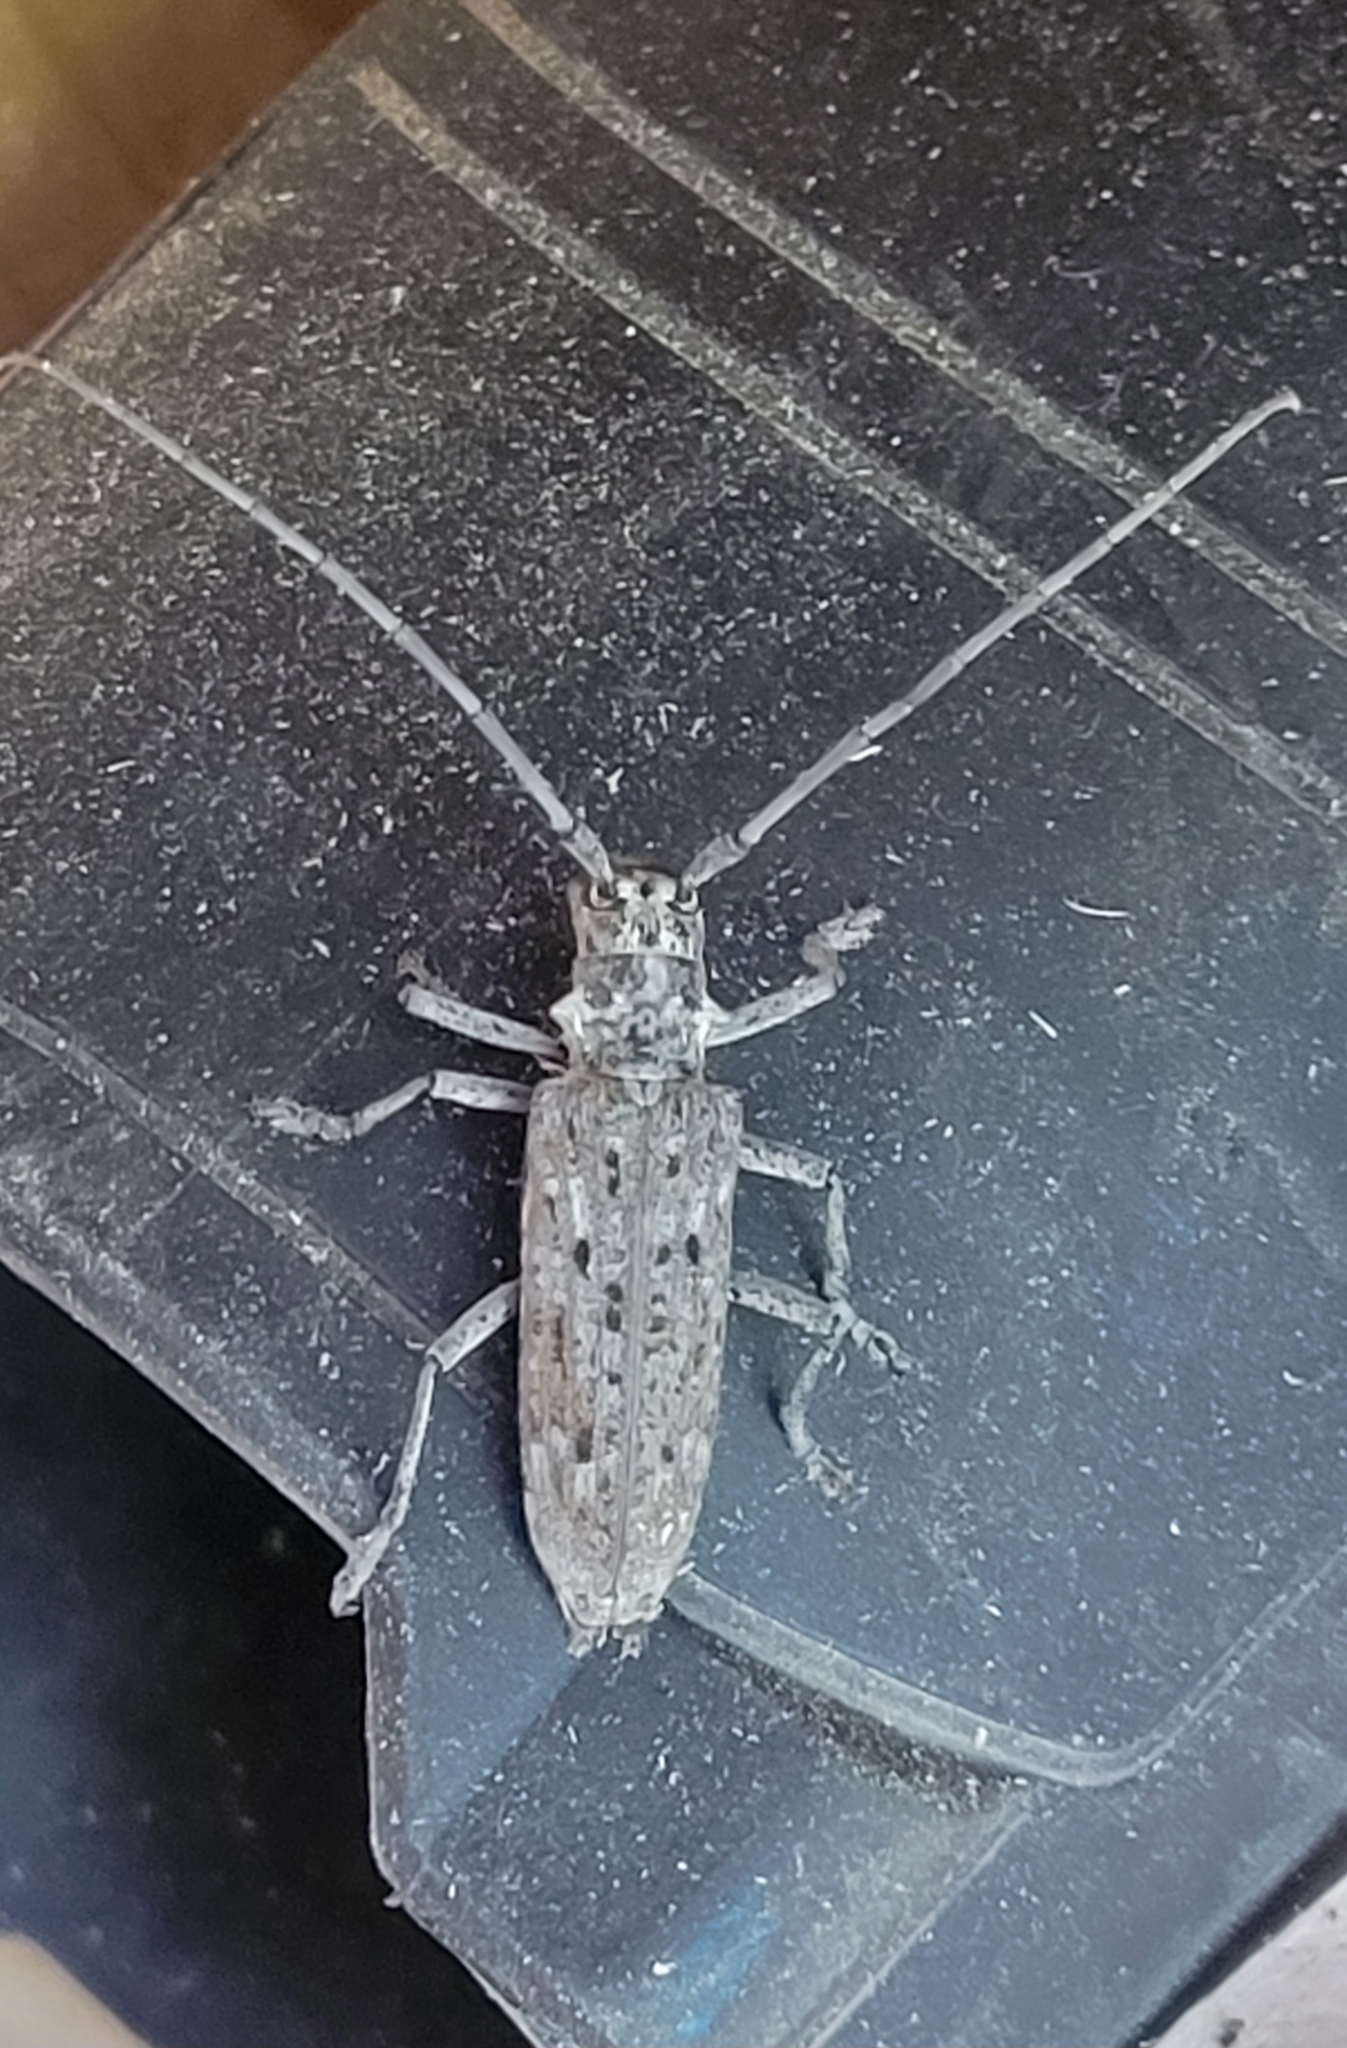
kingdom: Animalia
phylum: Arthropoda
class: Insecta
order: Coleoptera
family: Cerambycidae
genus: Monochamus
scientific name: Monochamus notatus
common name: Northeastern pine sawyer beetle
